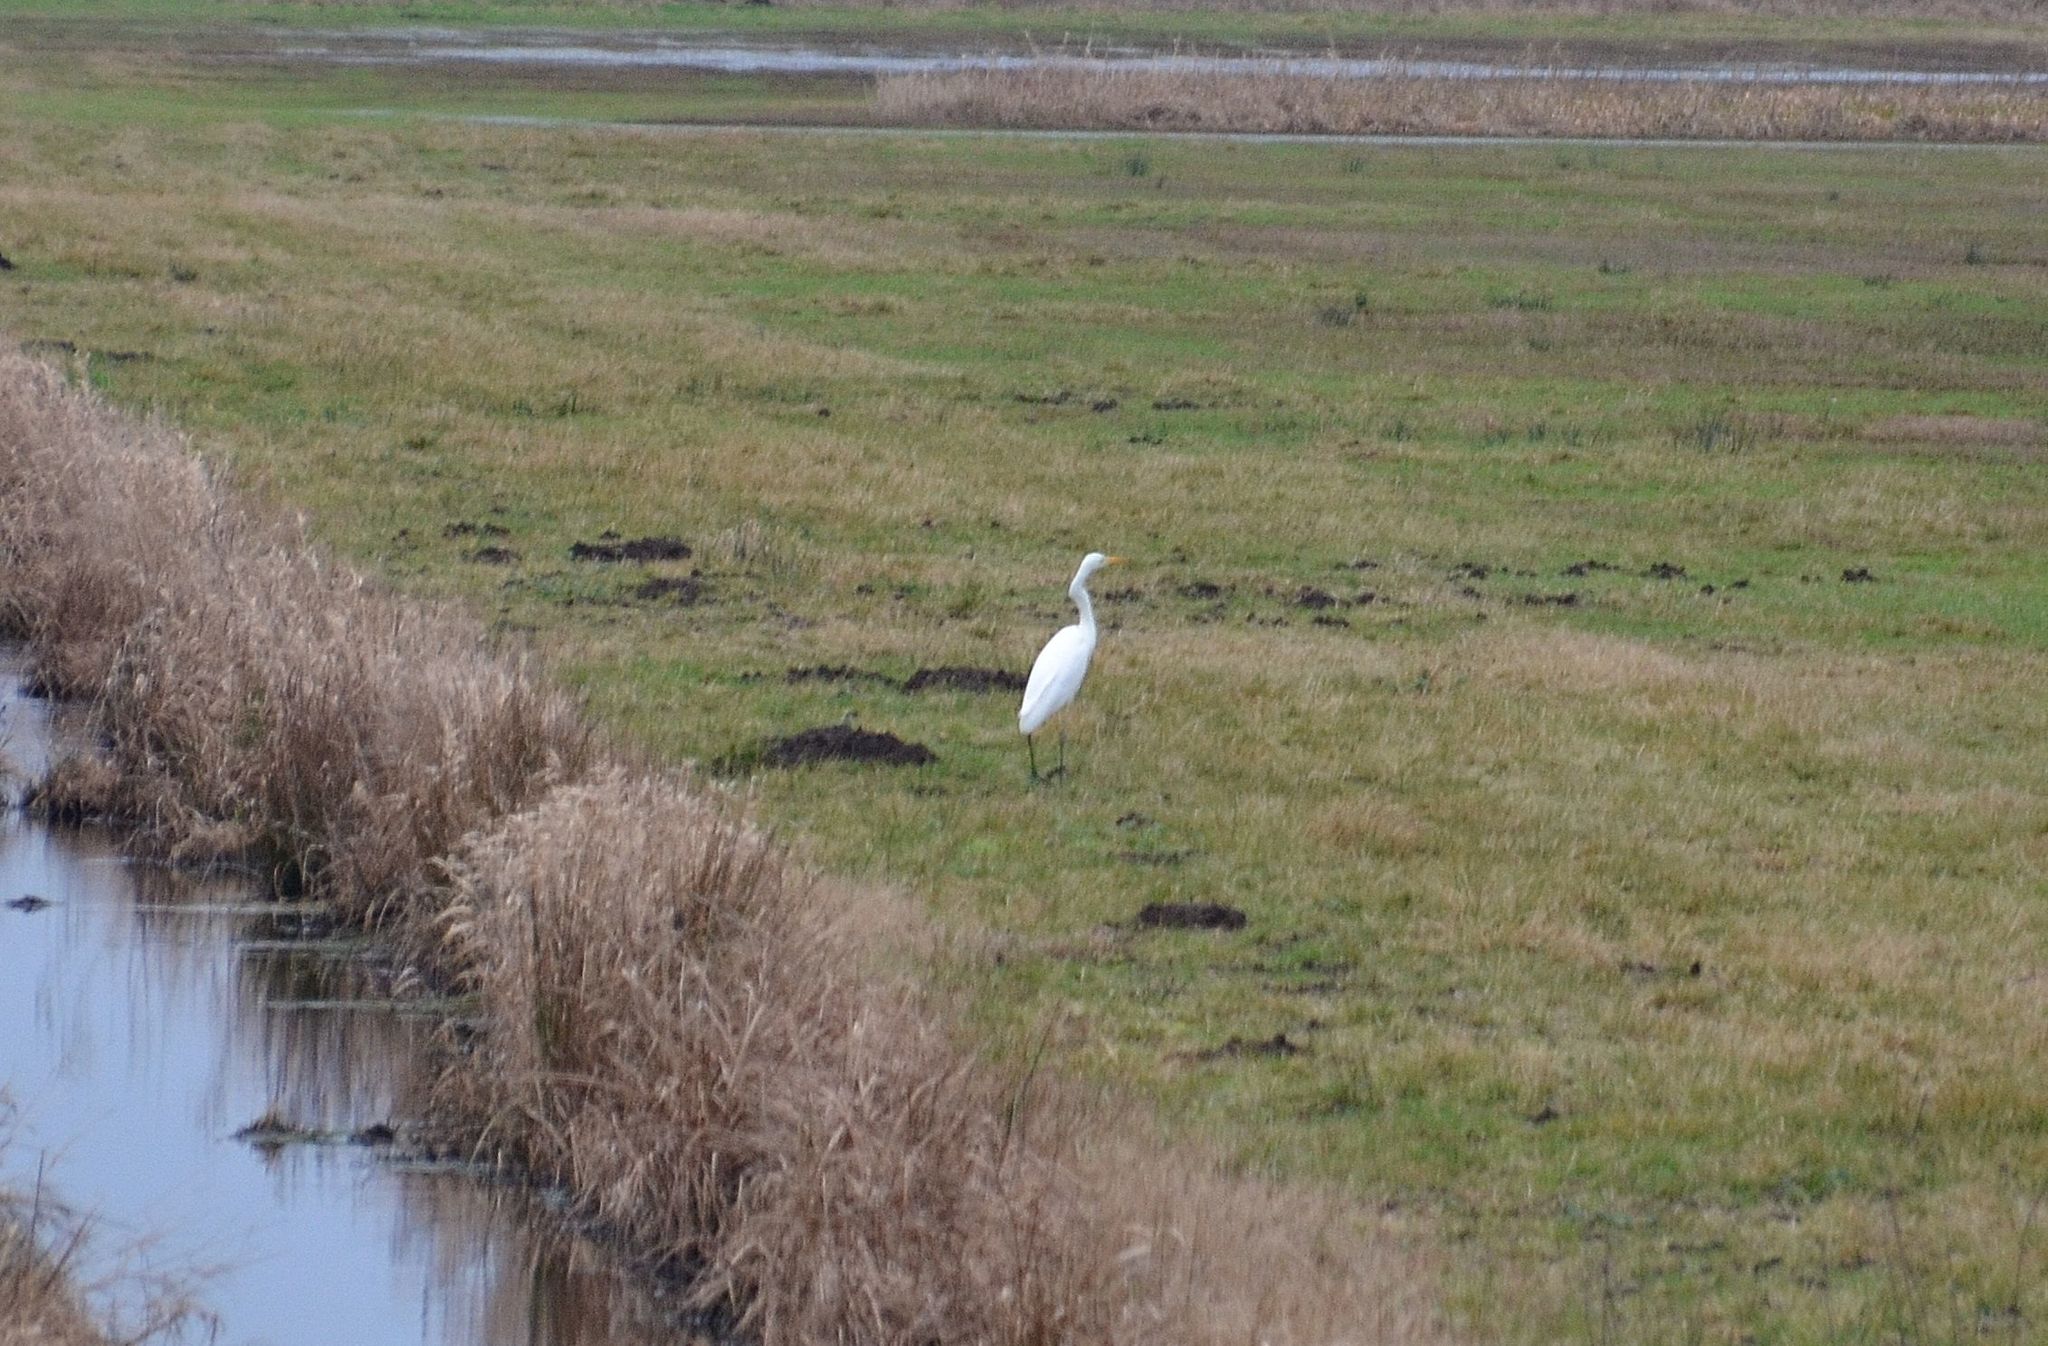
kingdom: Animalia
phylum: Chordata
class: Aves
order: Pelecaniformes
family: Ardeidae
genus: Ardea
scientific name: Ardea alba
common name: Great egret
